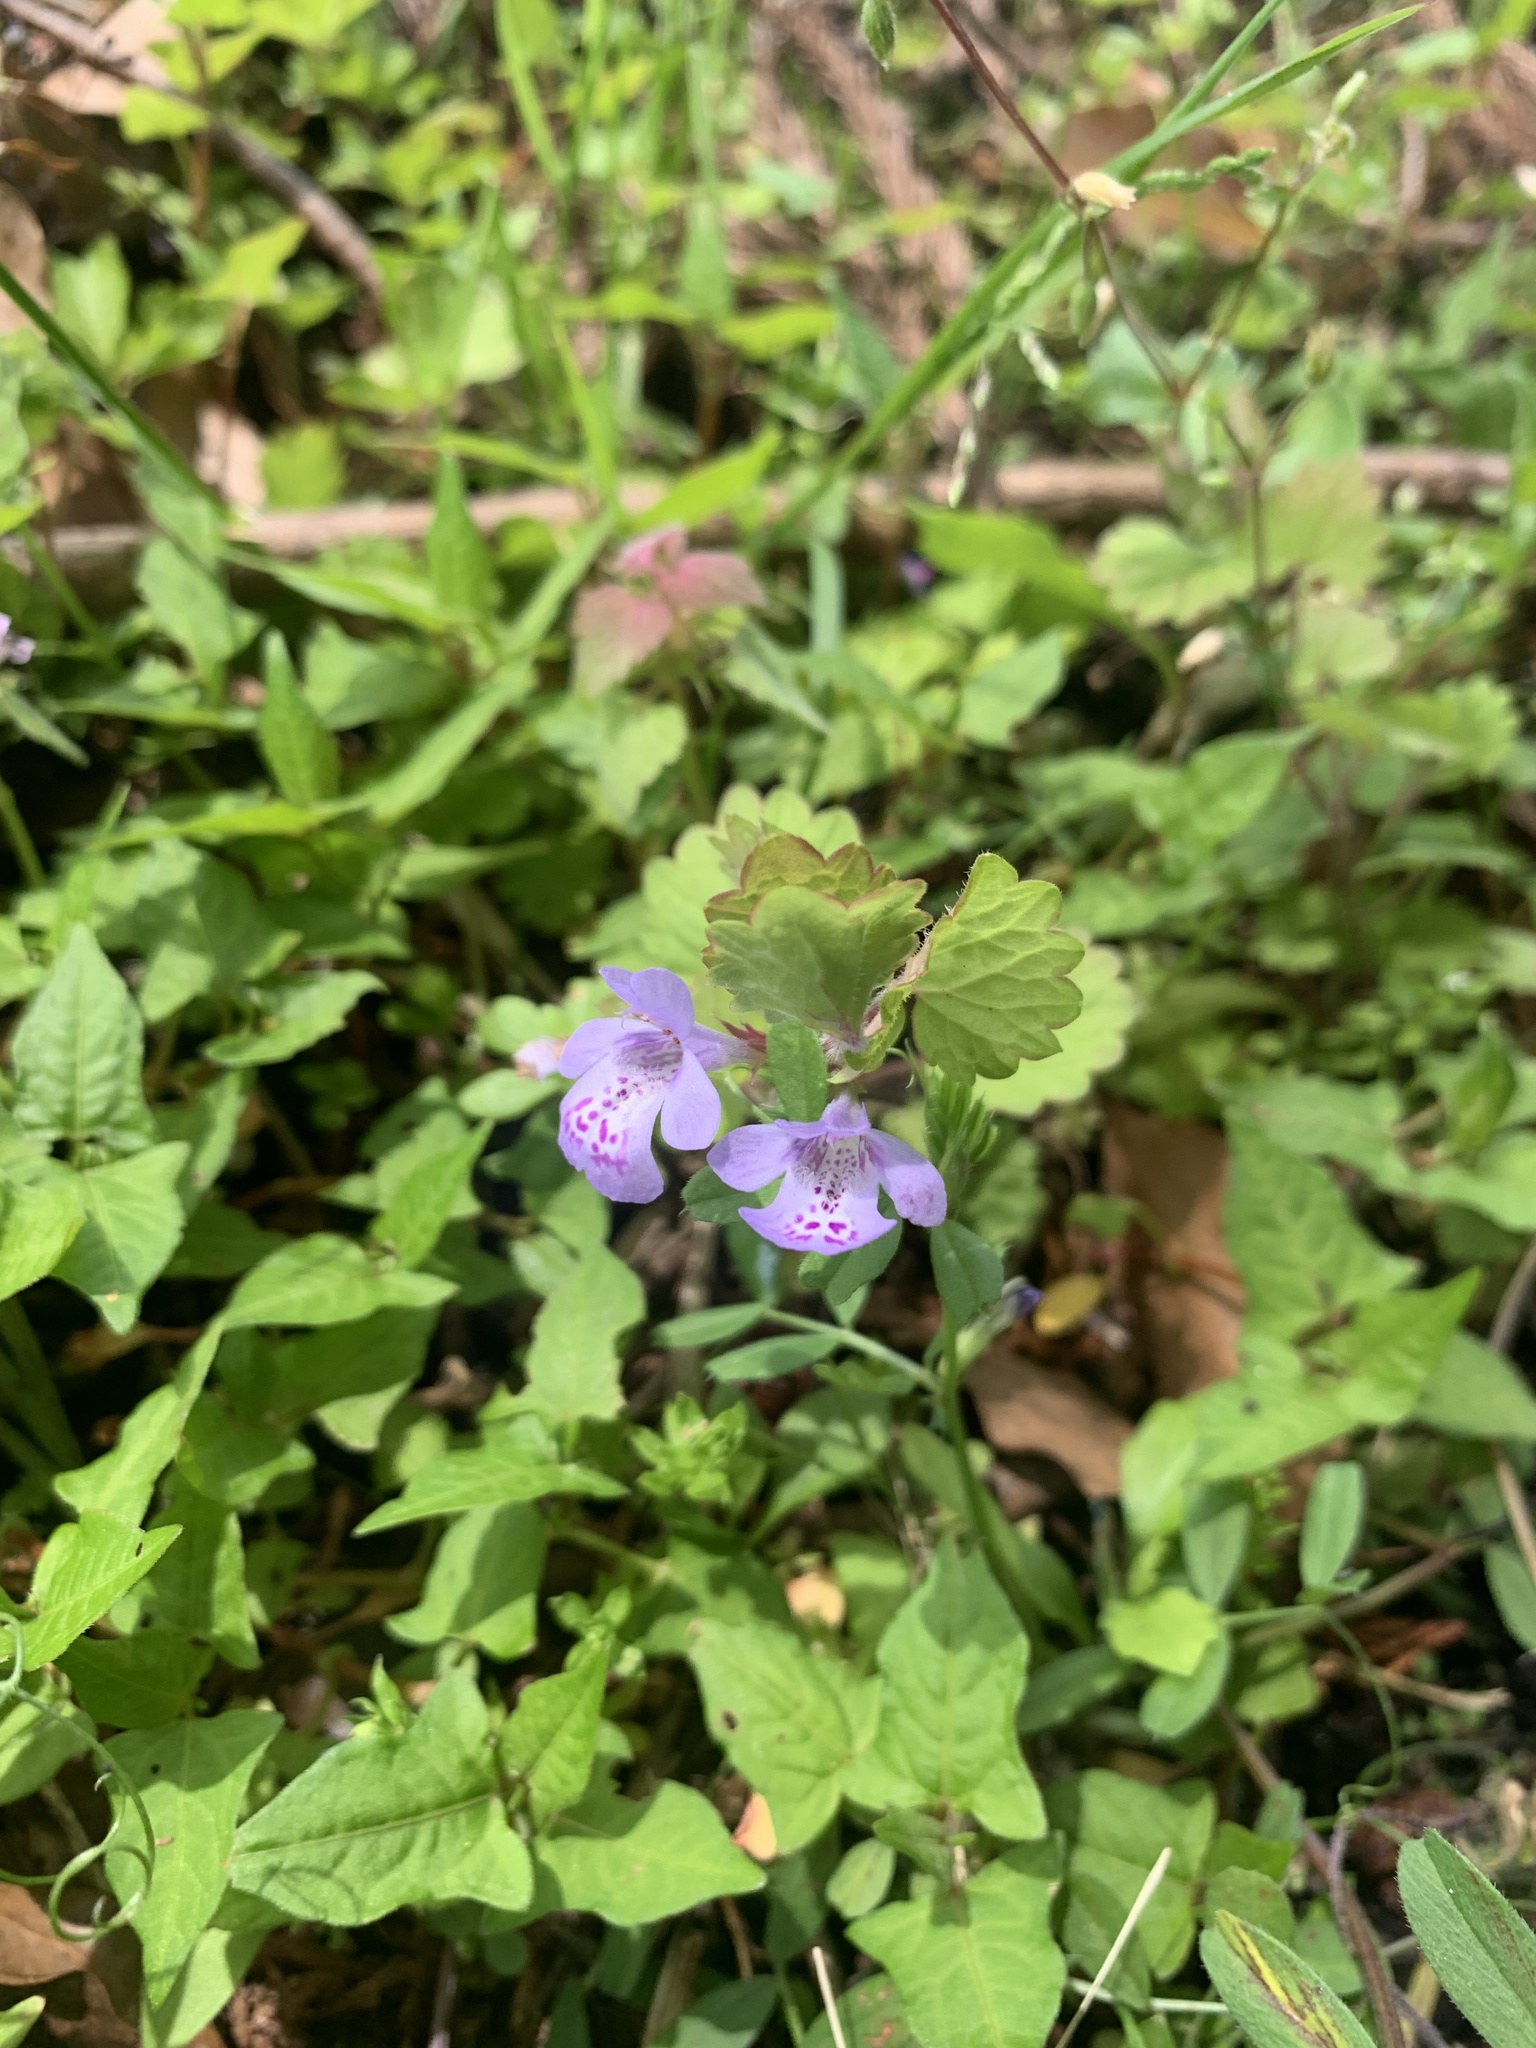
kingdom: Plantae
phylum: Tracheophyta
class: Magnoliopsida
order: Lamiales
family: Lamiaceae
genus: Glechoma
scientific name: Glechoma grandis
